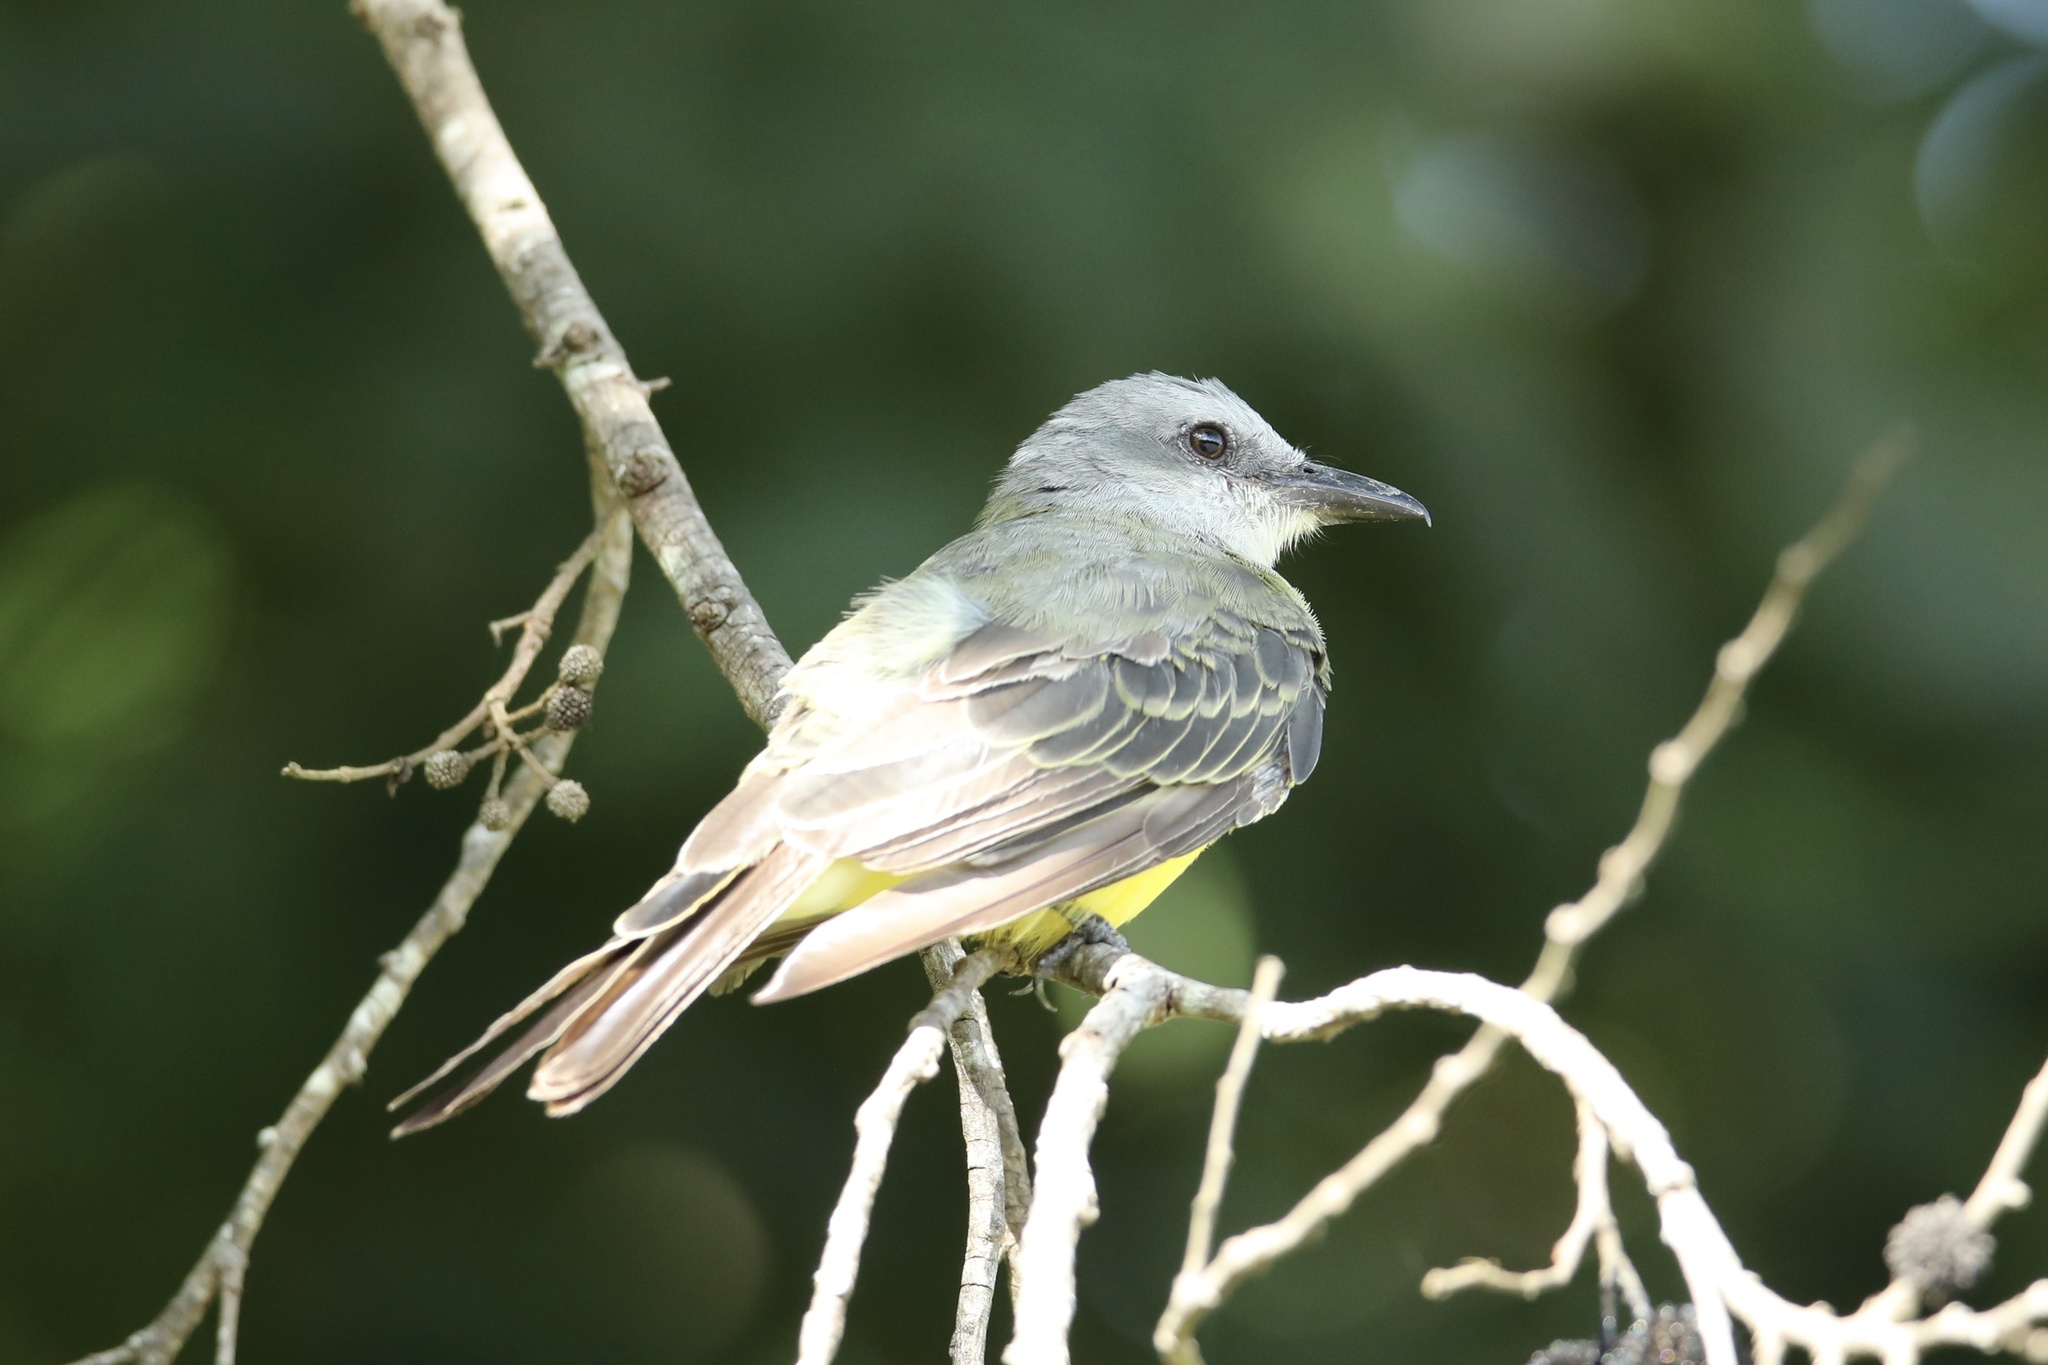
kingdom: Animalia
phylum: Chordata
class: Aves
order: Passeriformes
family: Tyrannidae
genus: Tyrannus
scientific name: Tyrannus melancholicus
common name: Tropical kingbird
